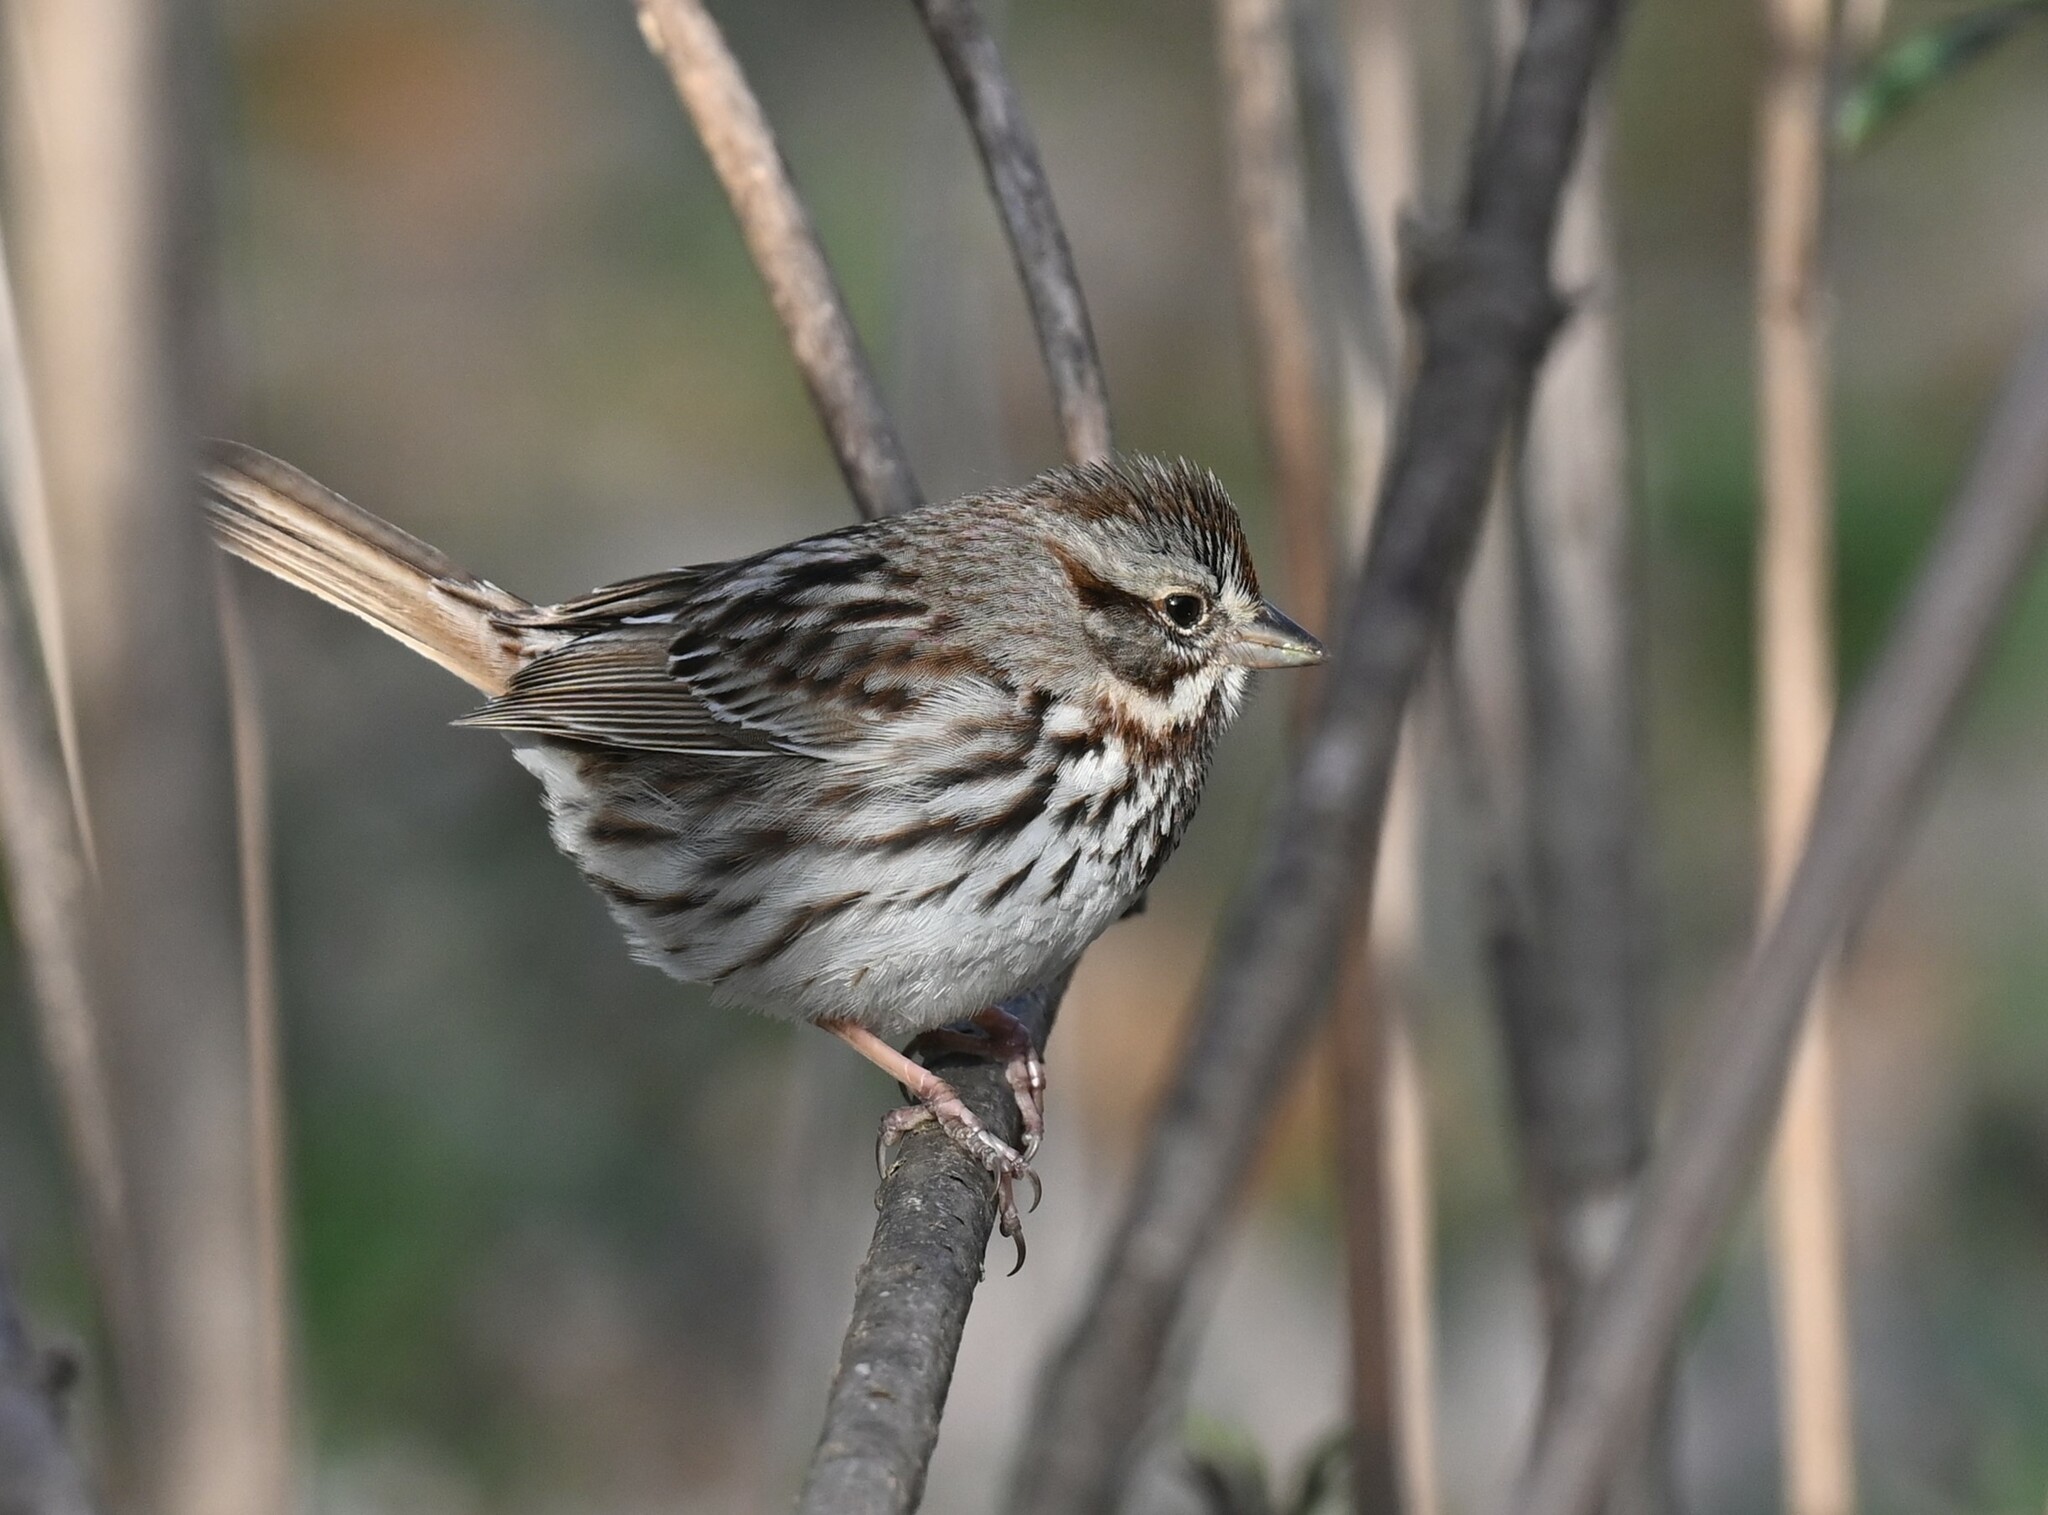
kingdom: Animalia
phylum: Chordata
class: Aves
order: Passeriformes
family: Passerellidae
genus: Melospiza
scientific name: Melospiza melodia
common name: Song sparrow
